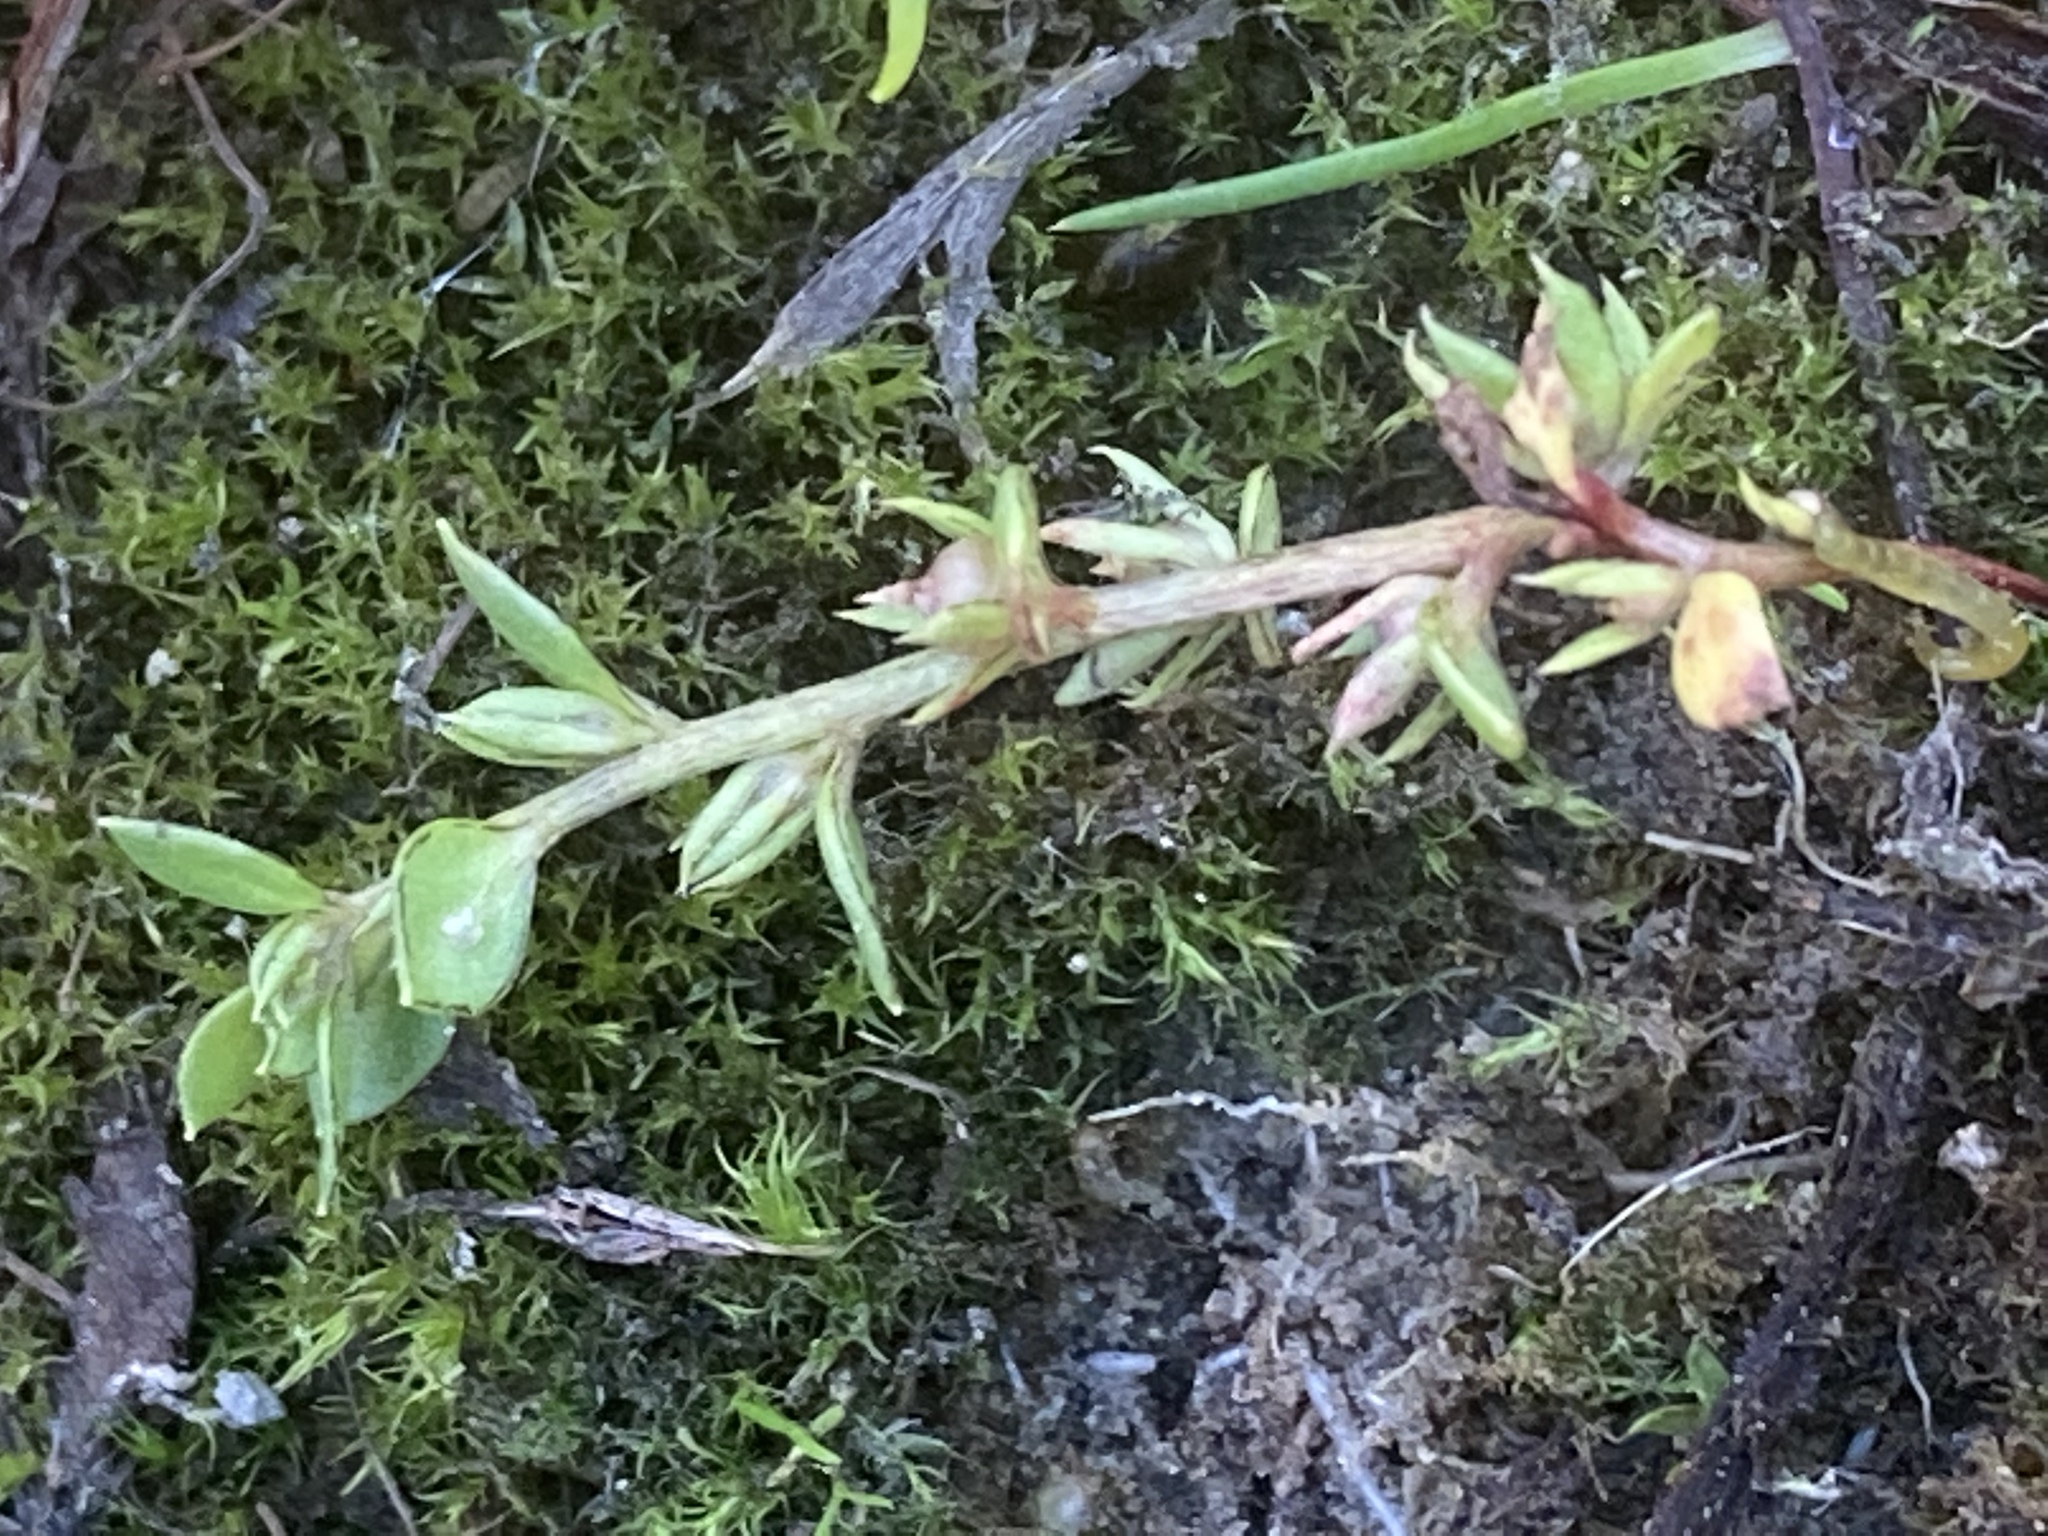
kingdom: Plantae
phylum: Tracheophyta
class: Magnoliopsida
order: Ericales
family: Primulaceae
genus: Lysimachia
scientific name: Lysimachia minima
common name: Chaffweed
